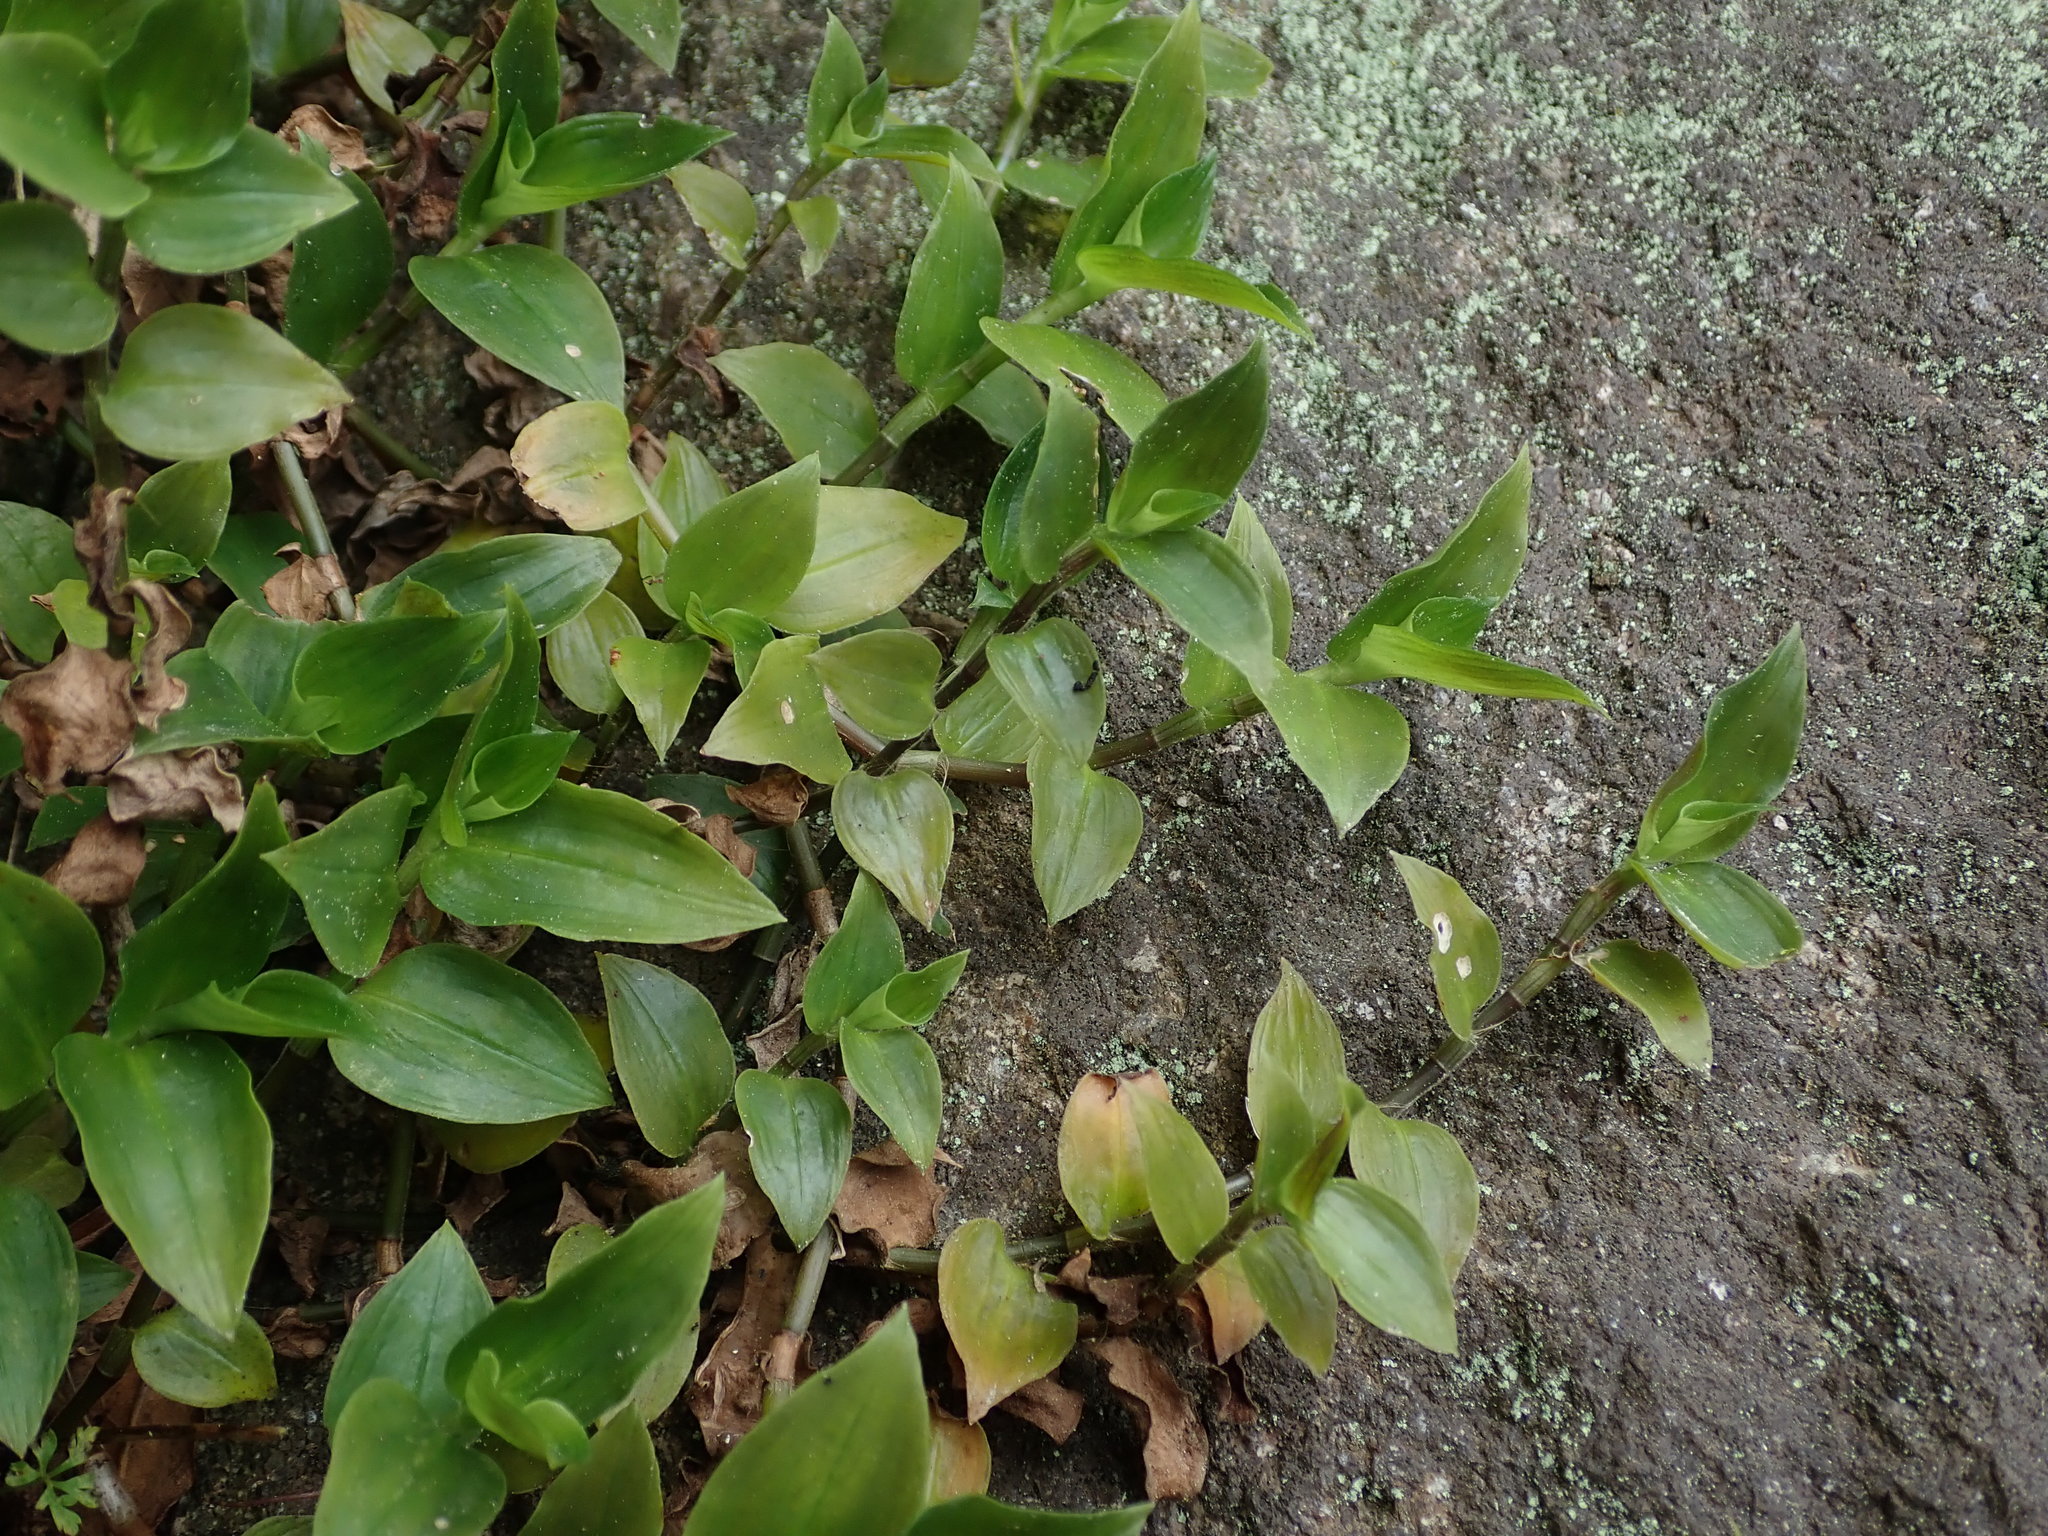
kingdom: Plantae
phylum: Tracheophyta
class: Liliopsida
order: Commelinales
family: Commelinaceae
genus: Tradescantia
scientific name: Tradescantia fluminensis
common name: Wandering-jew
